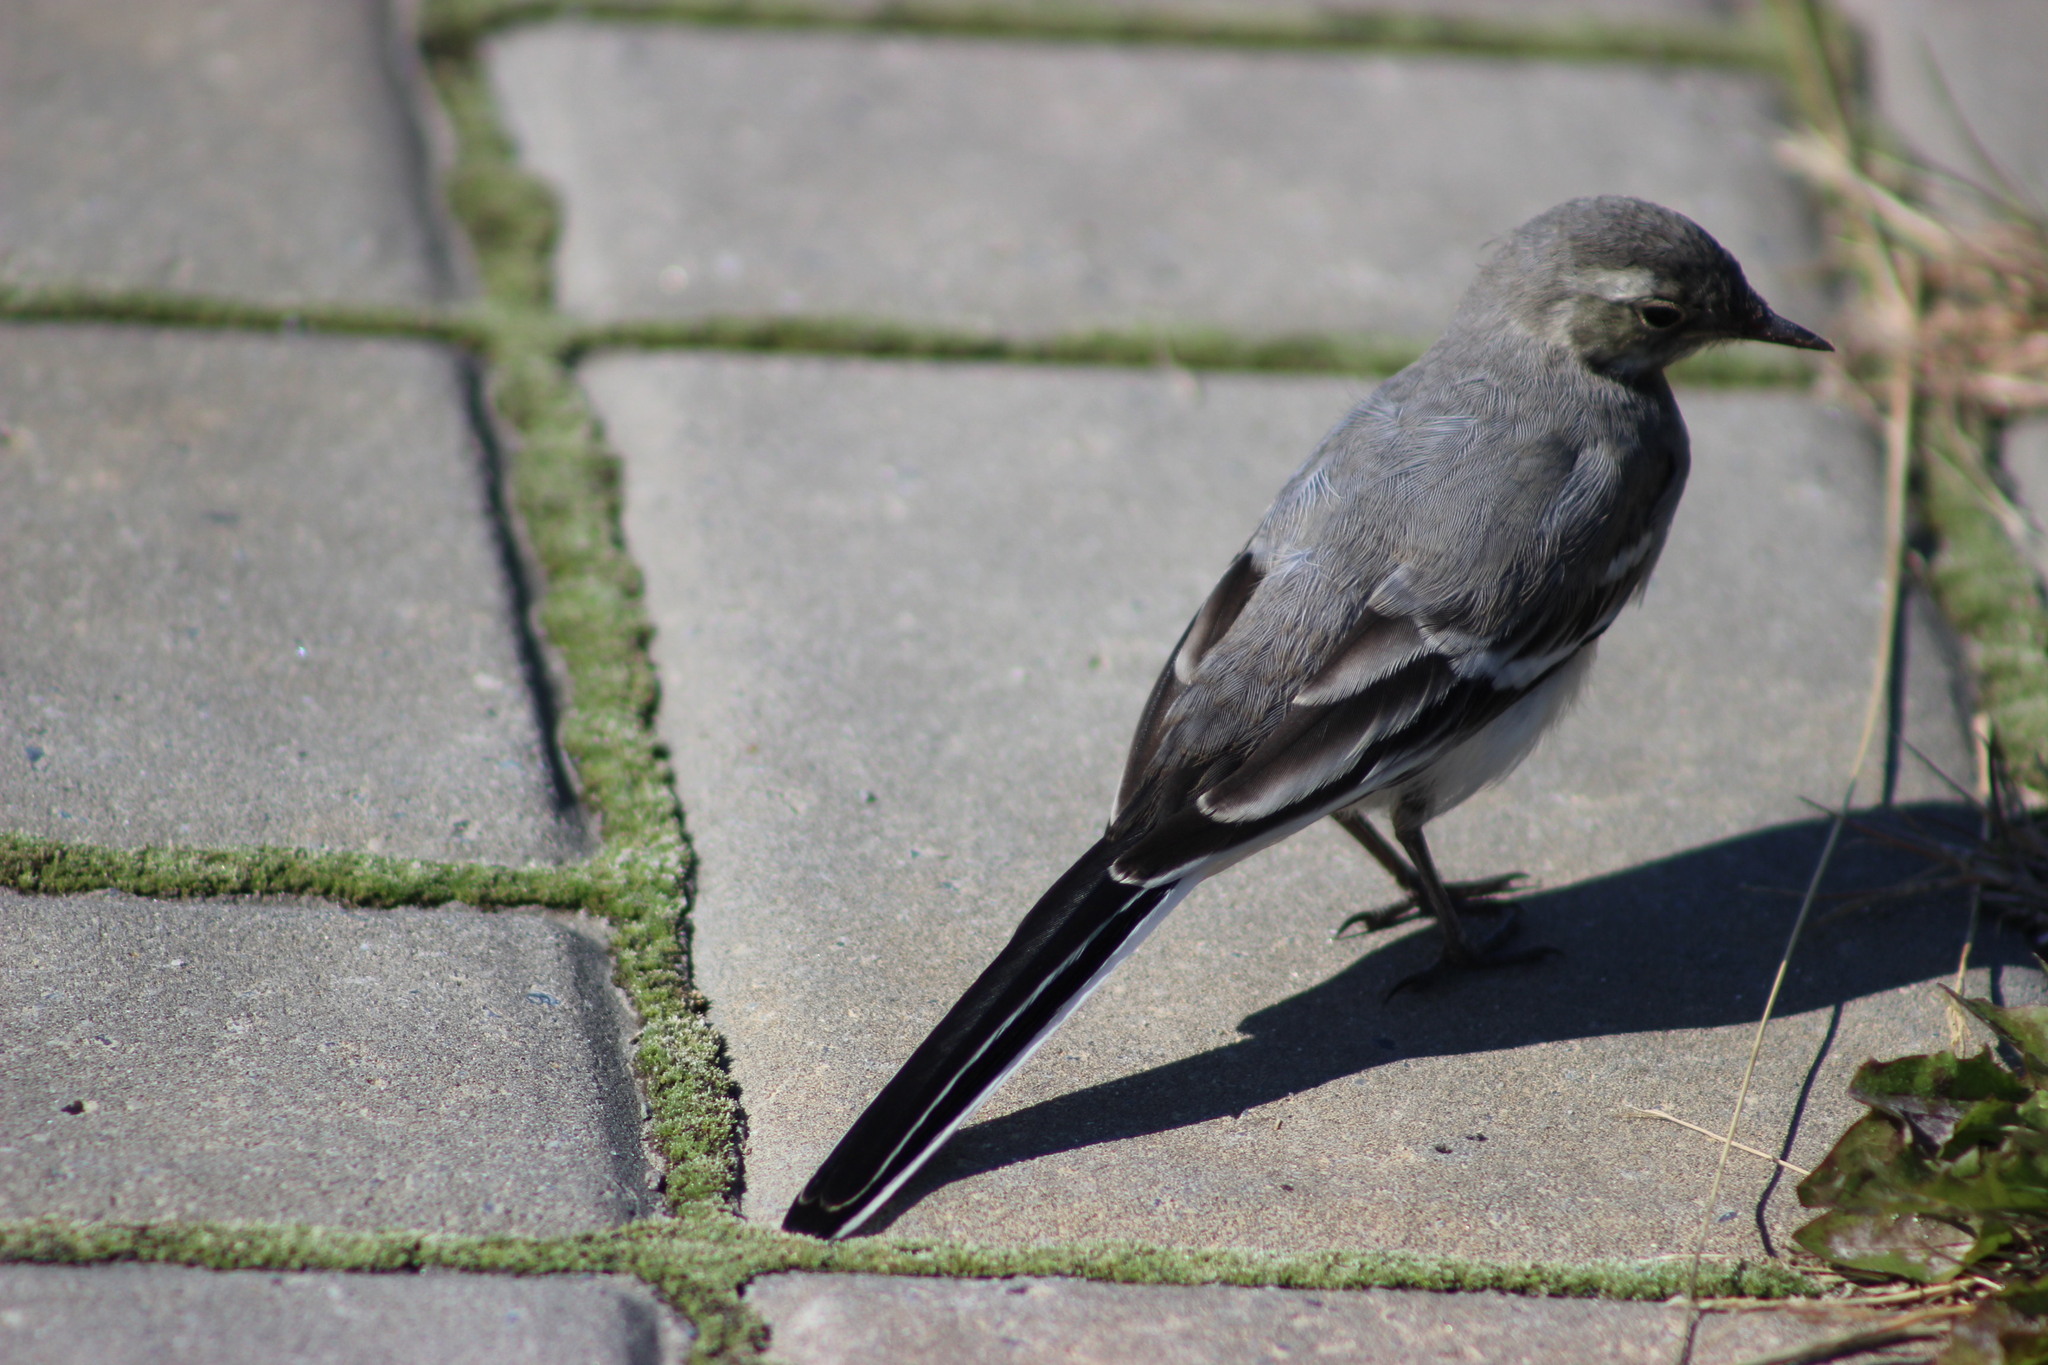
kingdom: Animalia
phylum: Chordata
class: Aves
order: Passeriformes
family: Motacillidae
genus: Motacilla
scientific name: Motacilla alba
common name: White wagtail
